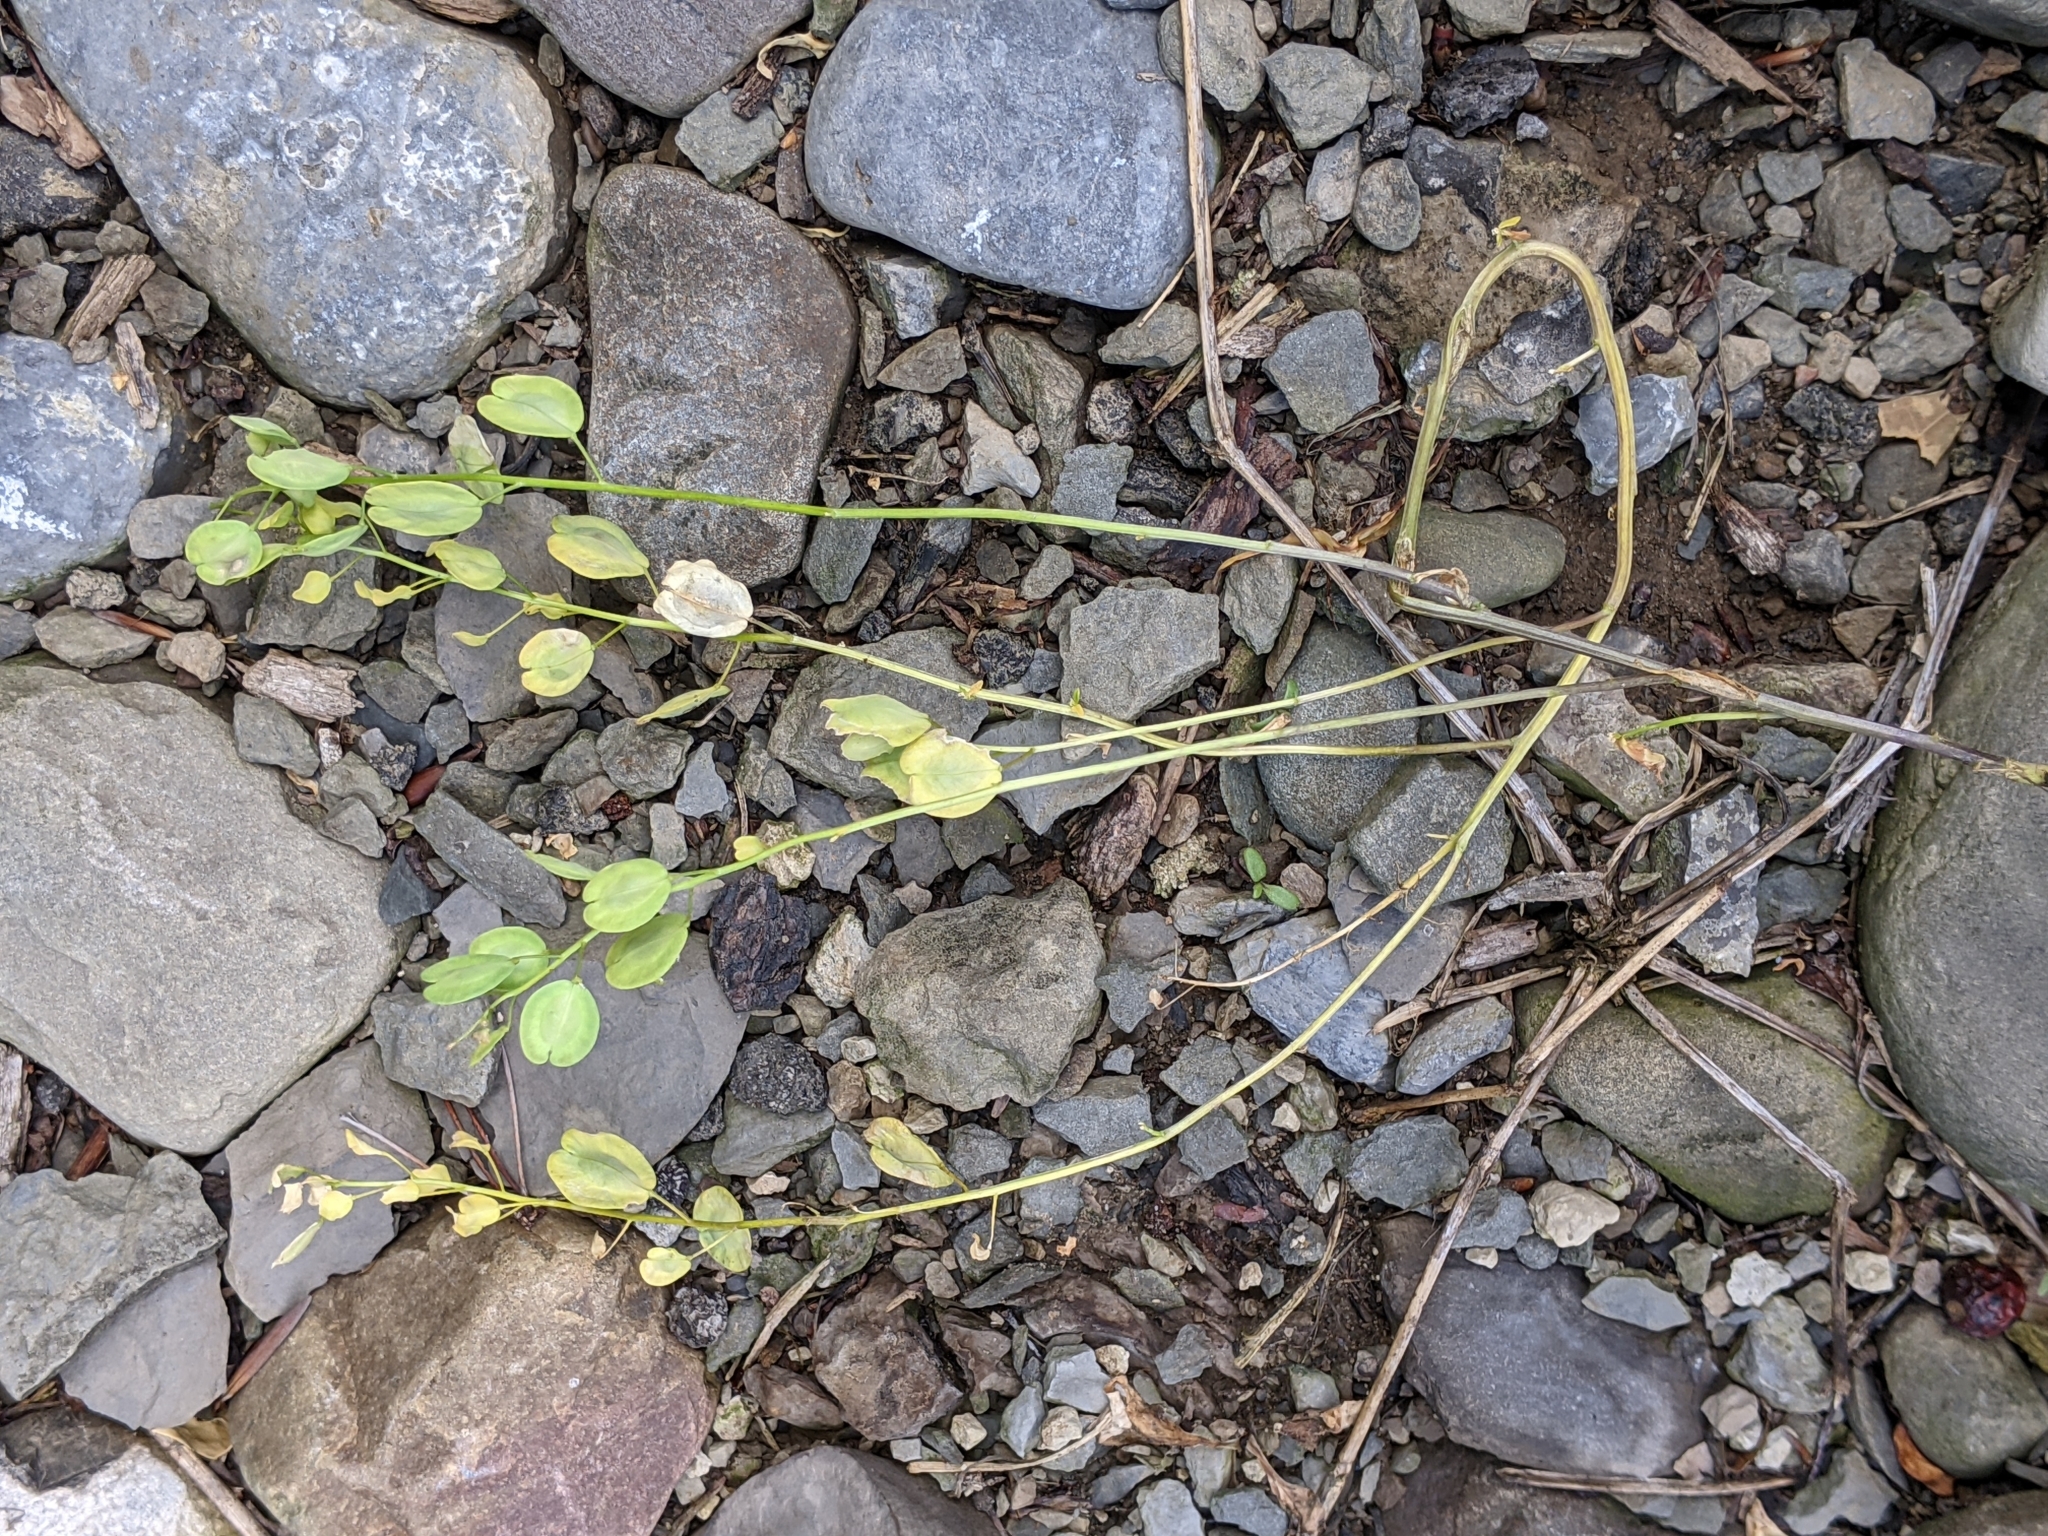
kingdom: Plantae
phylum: Tracheophyta
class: Magnoliopsida
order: Brassicales
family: Brassicaceae
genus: Thlaspi
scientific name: Thlaspi arvense
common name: Field pennycress
